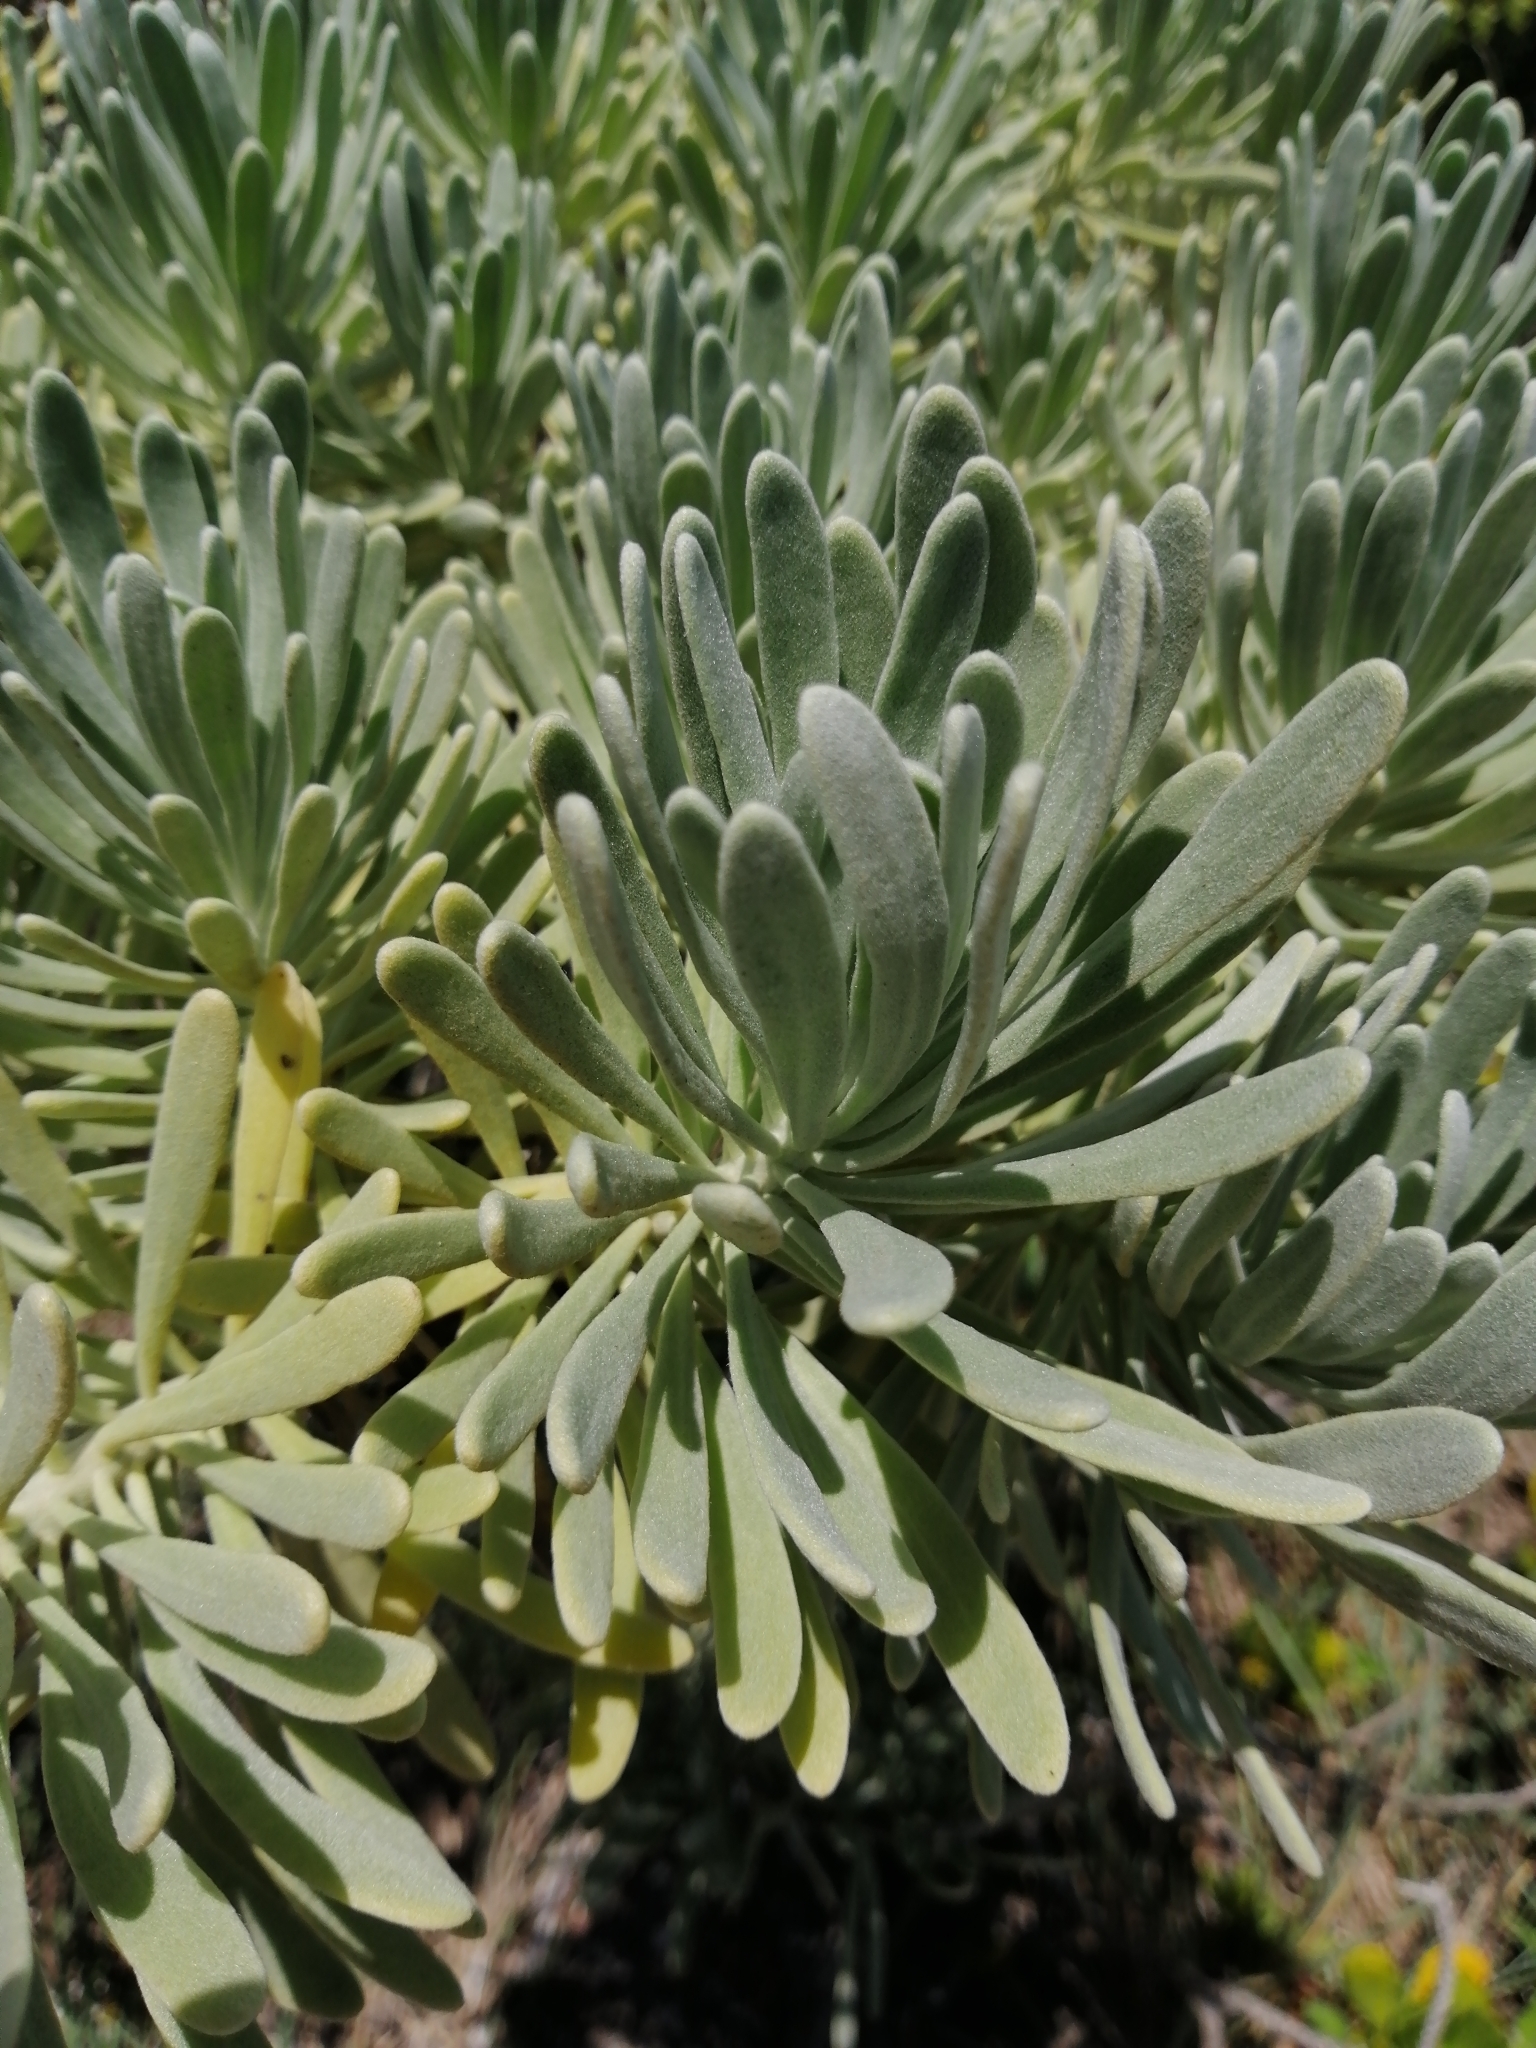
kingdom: Plantae
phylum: Tracheophyta
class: Magnoliopsida
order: Boraginales
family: Heliotropiaceae
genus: Tournefortia
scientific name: Tournefortia gnaphalodes
